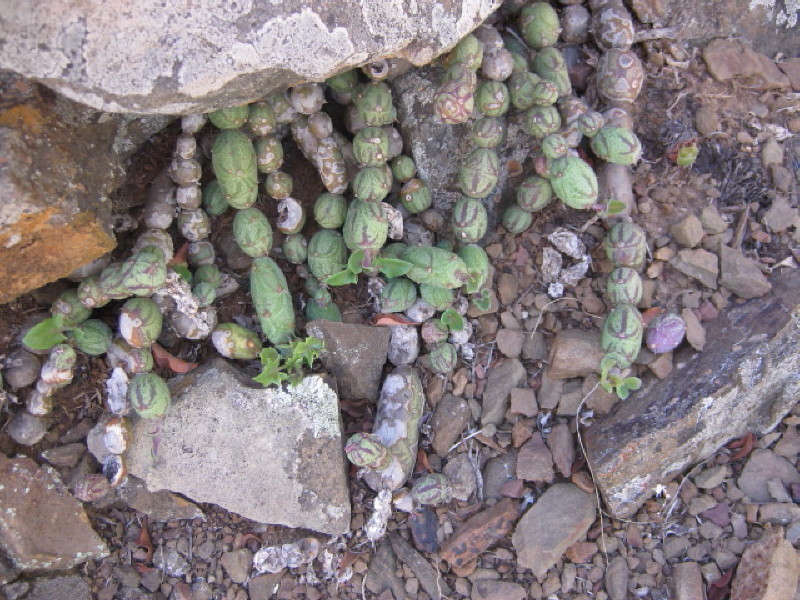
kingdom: Plantae
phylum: Tracheophyta
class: Magnoliopsida
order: Asterales
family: Asteraceae
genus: Curio
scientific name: Curio articulatus
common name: Candleplant
